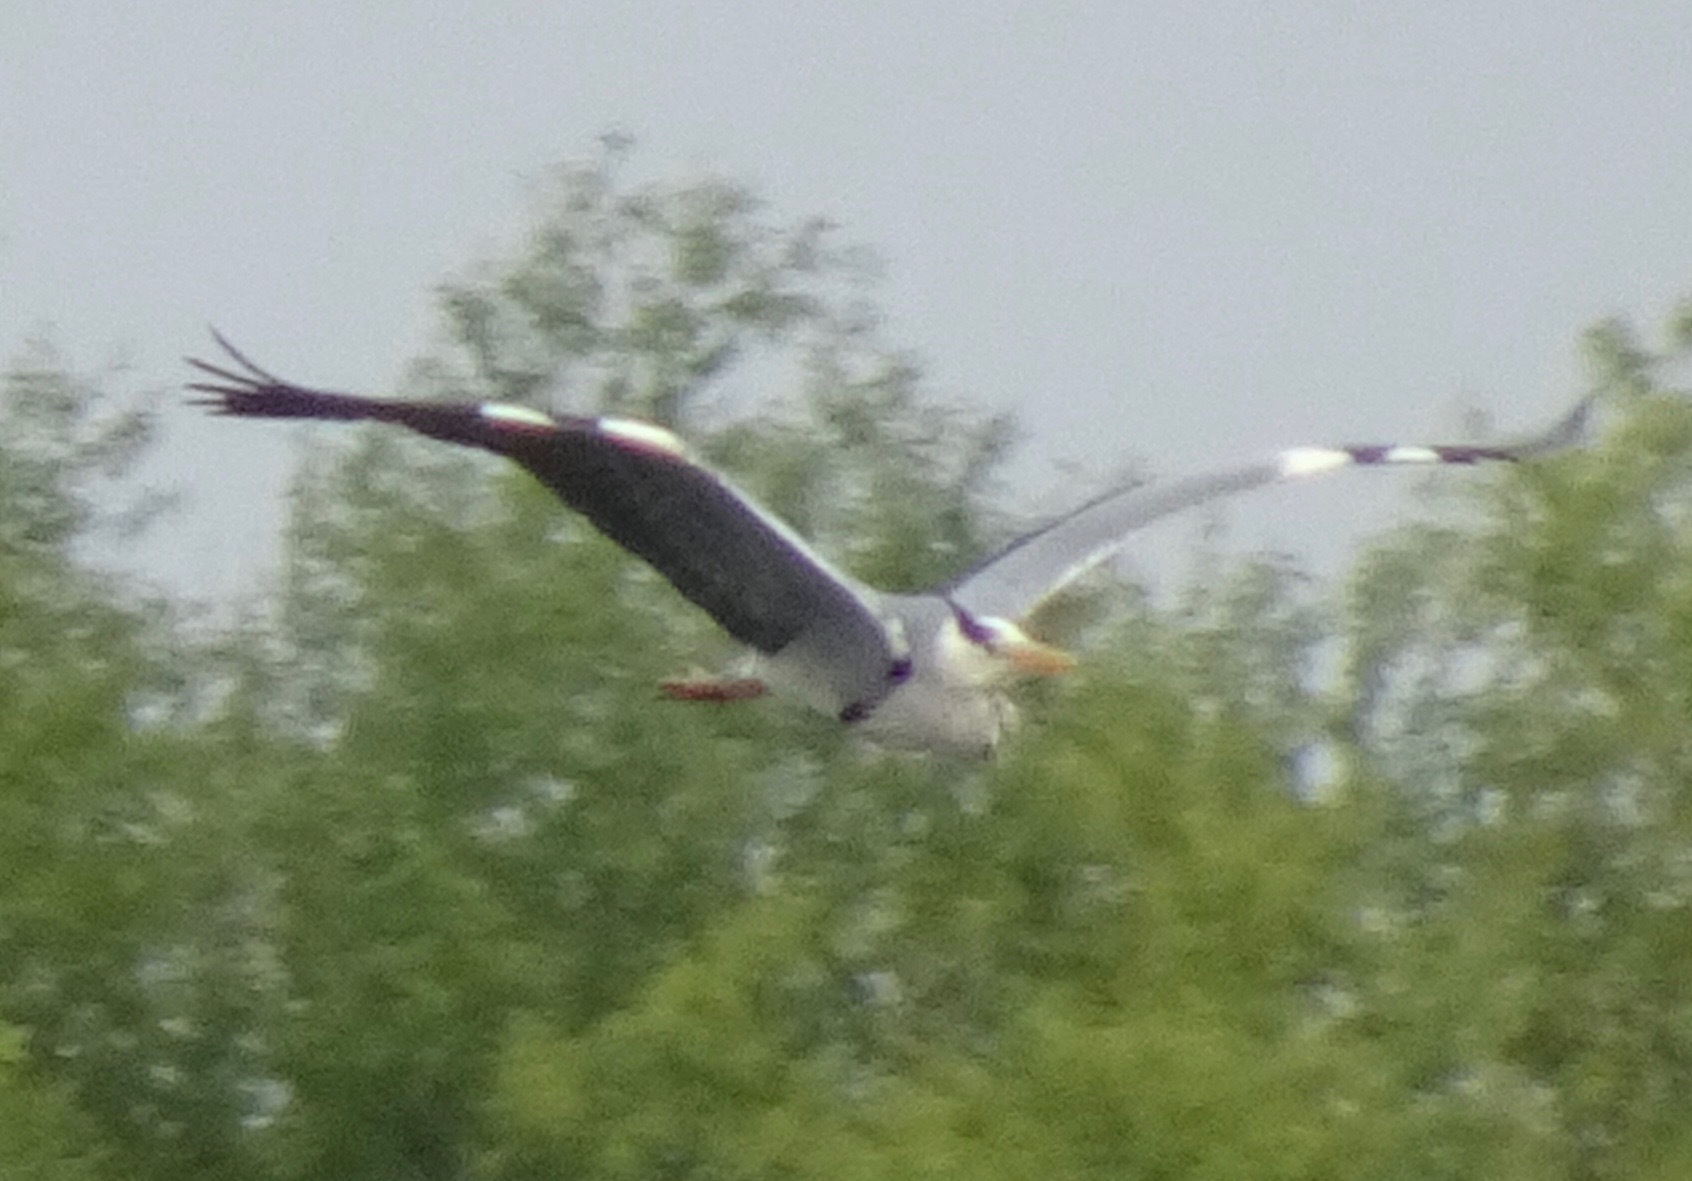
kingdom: Animalia
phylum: Chordata
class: Aves
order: Pelecaniformes
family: Ardeidae
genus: Ardea
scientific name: Ardea cinerea
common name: Grey heron
